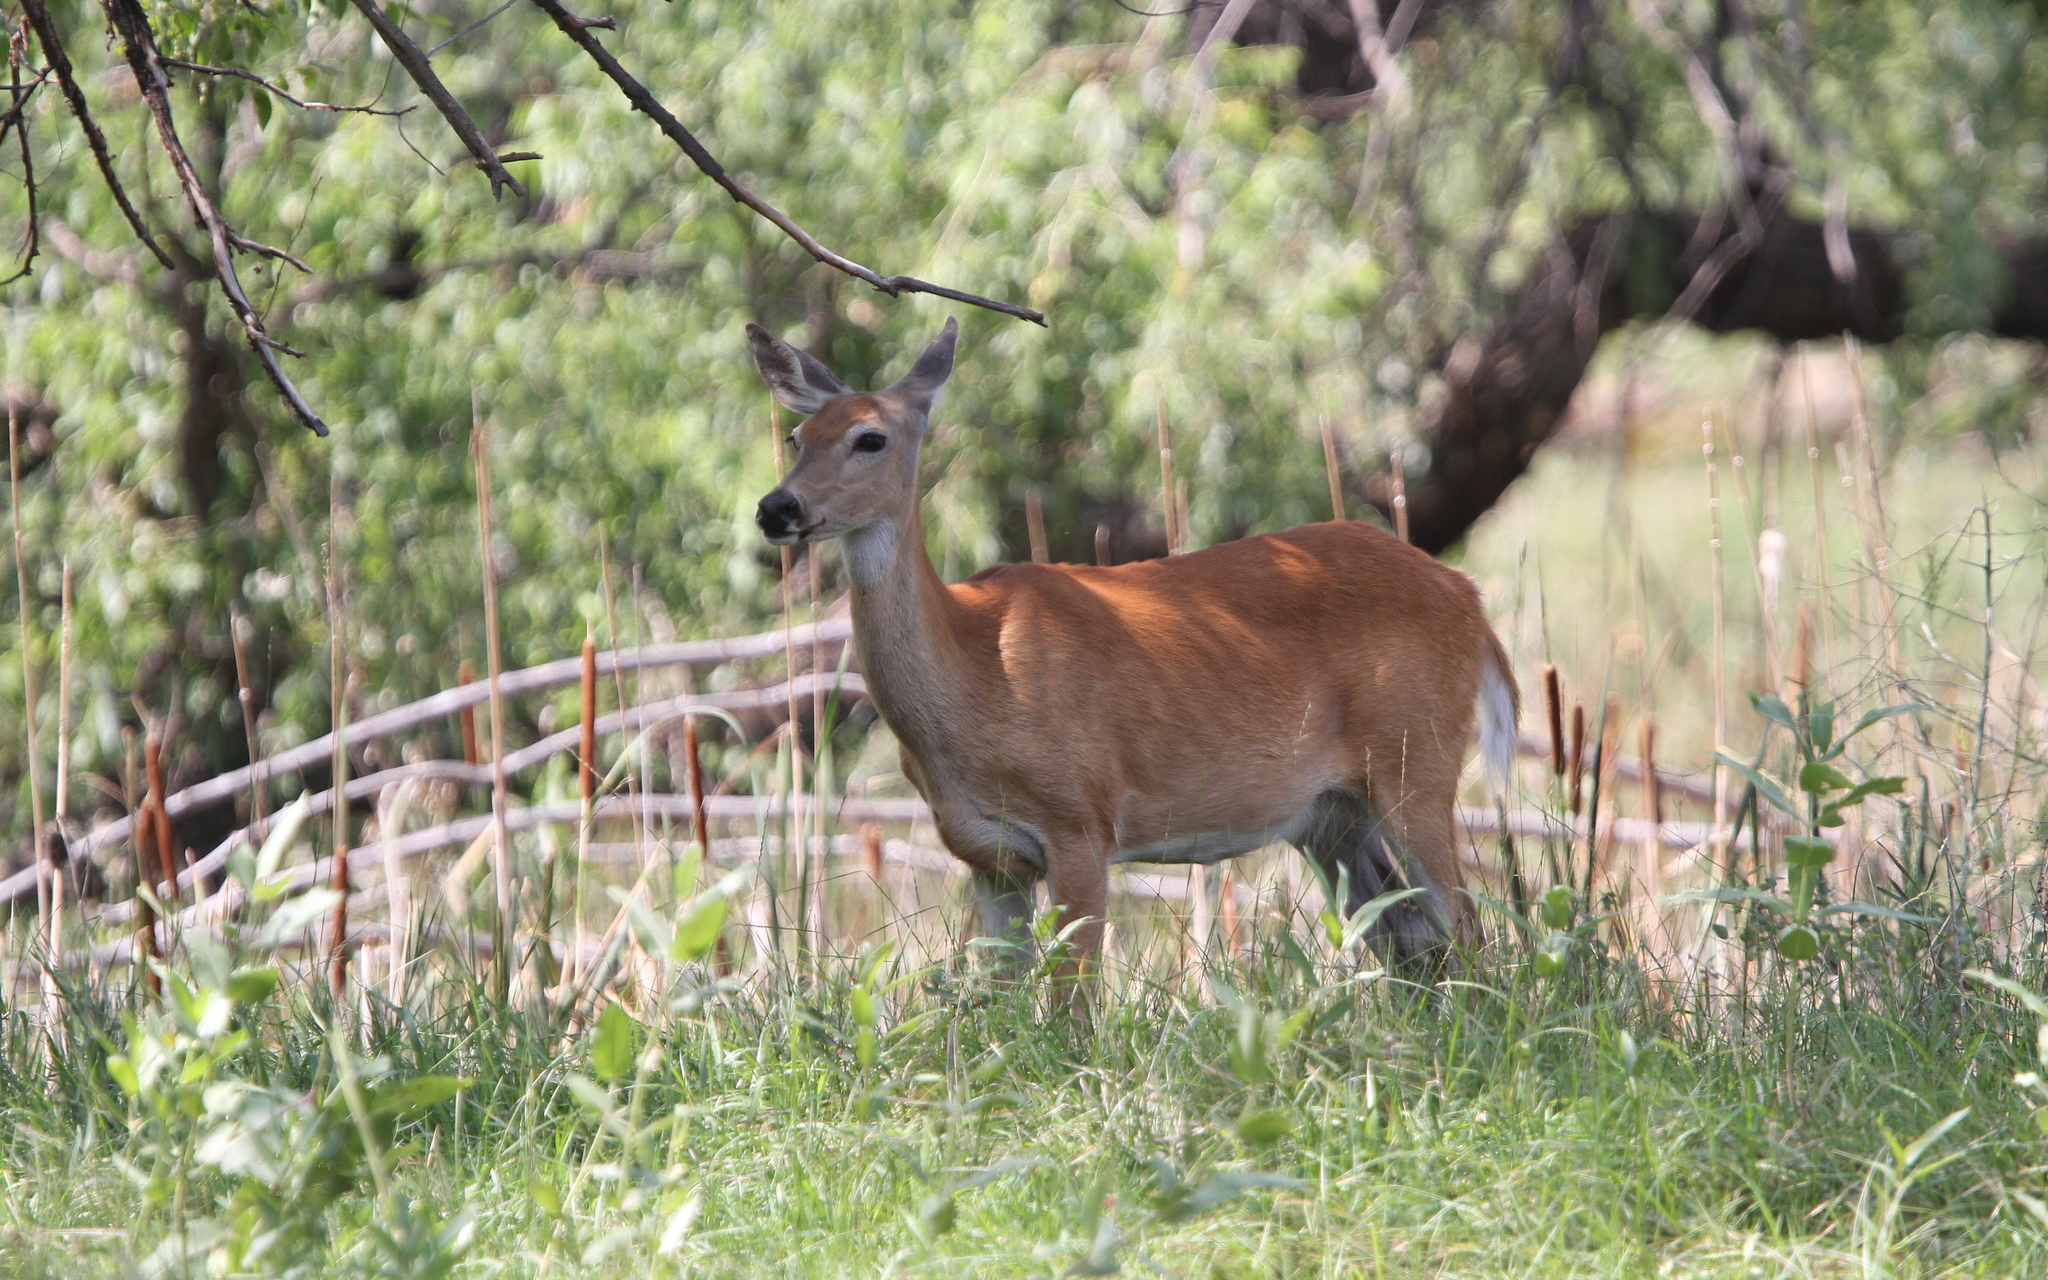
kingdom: Animalia
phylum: Chordata
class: Mammalia
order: Artiodactyla
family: Cervidae
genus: Odocoileus
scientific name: Odocoileus virginianus
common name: White-tailed deer
